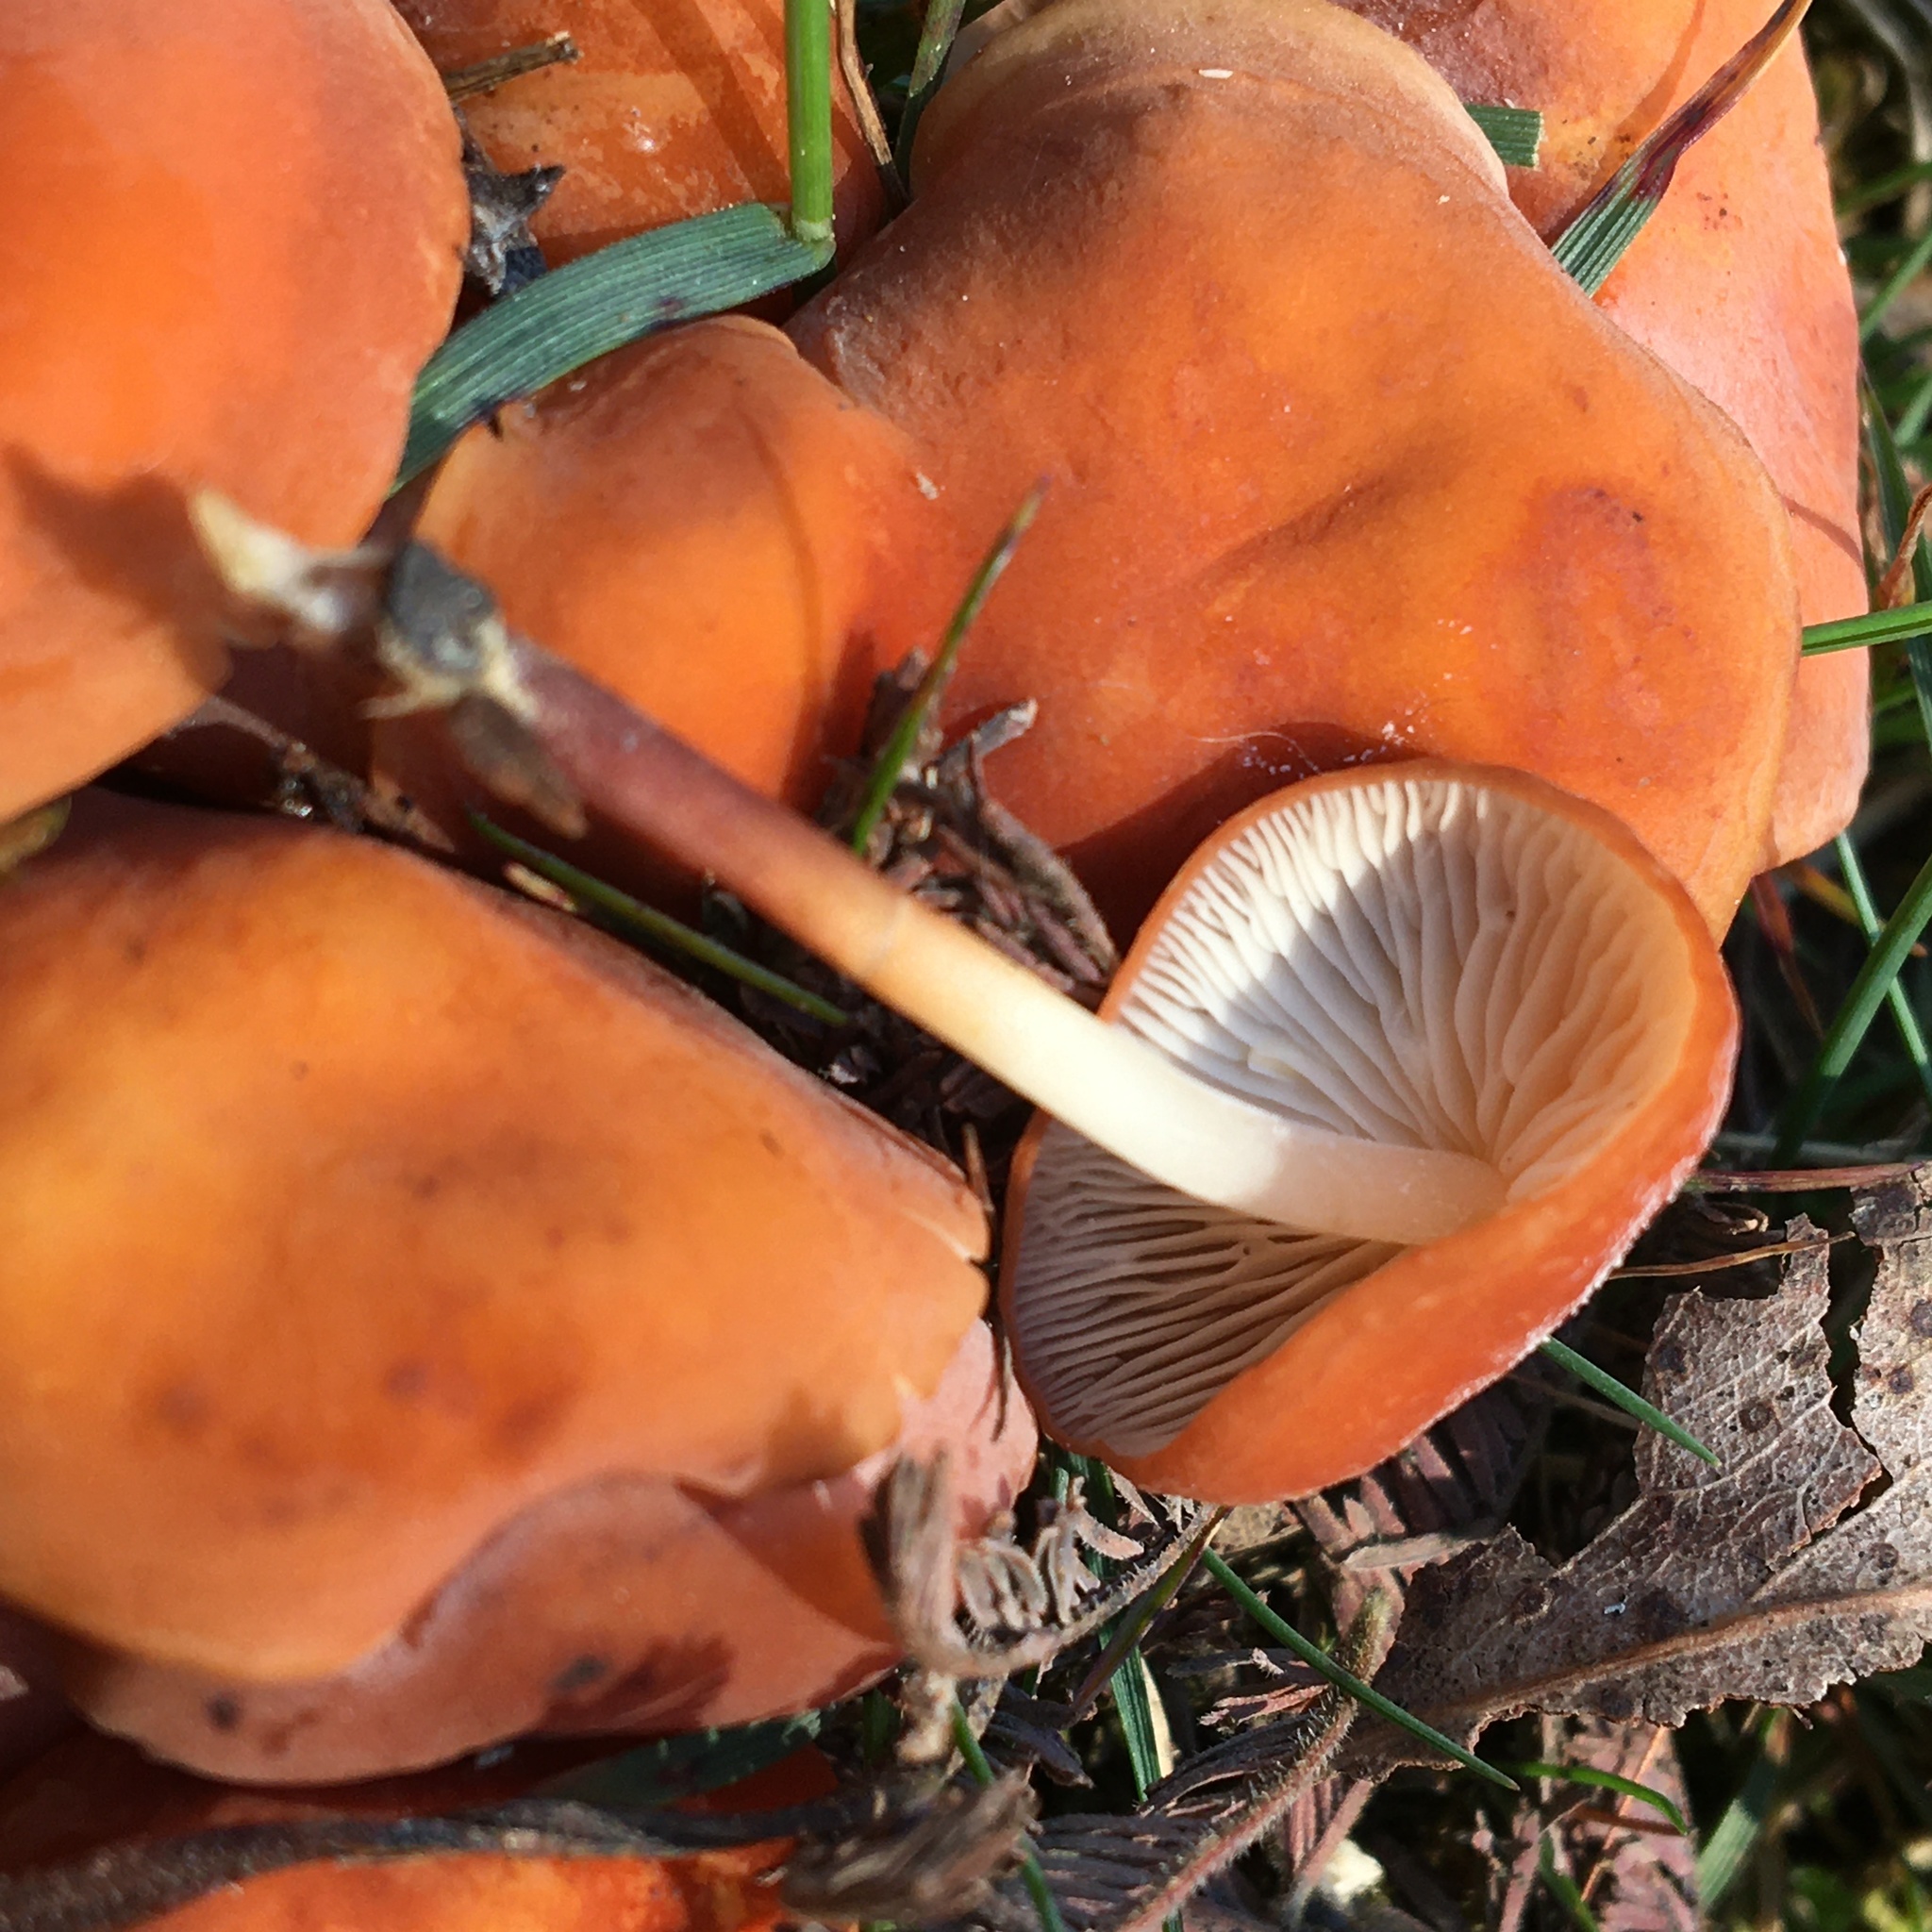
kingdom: Fungi
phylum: Basidiomycota
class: Agaricomycetes
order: Agaricales
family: Marasmiaceae
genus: Marasmius
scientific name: Marasmius elegans
